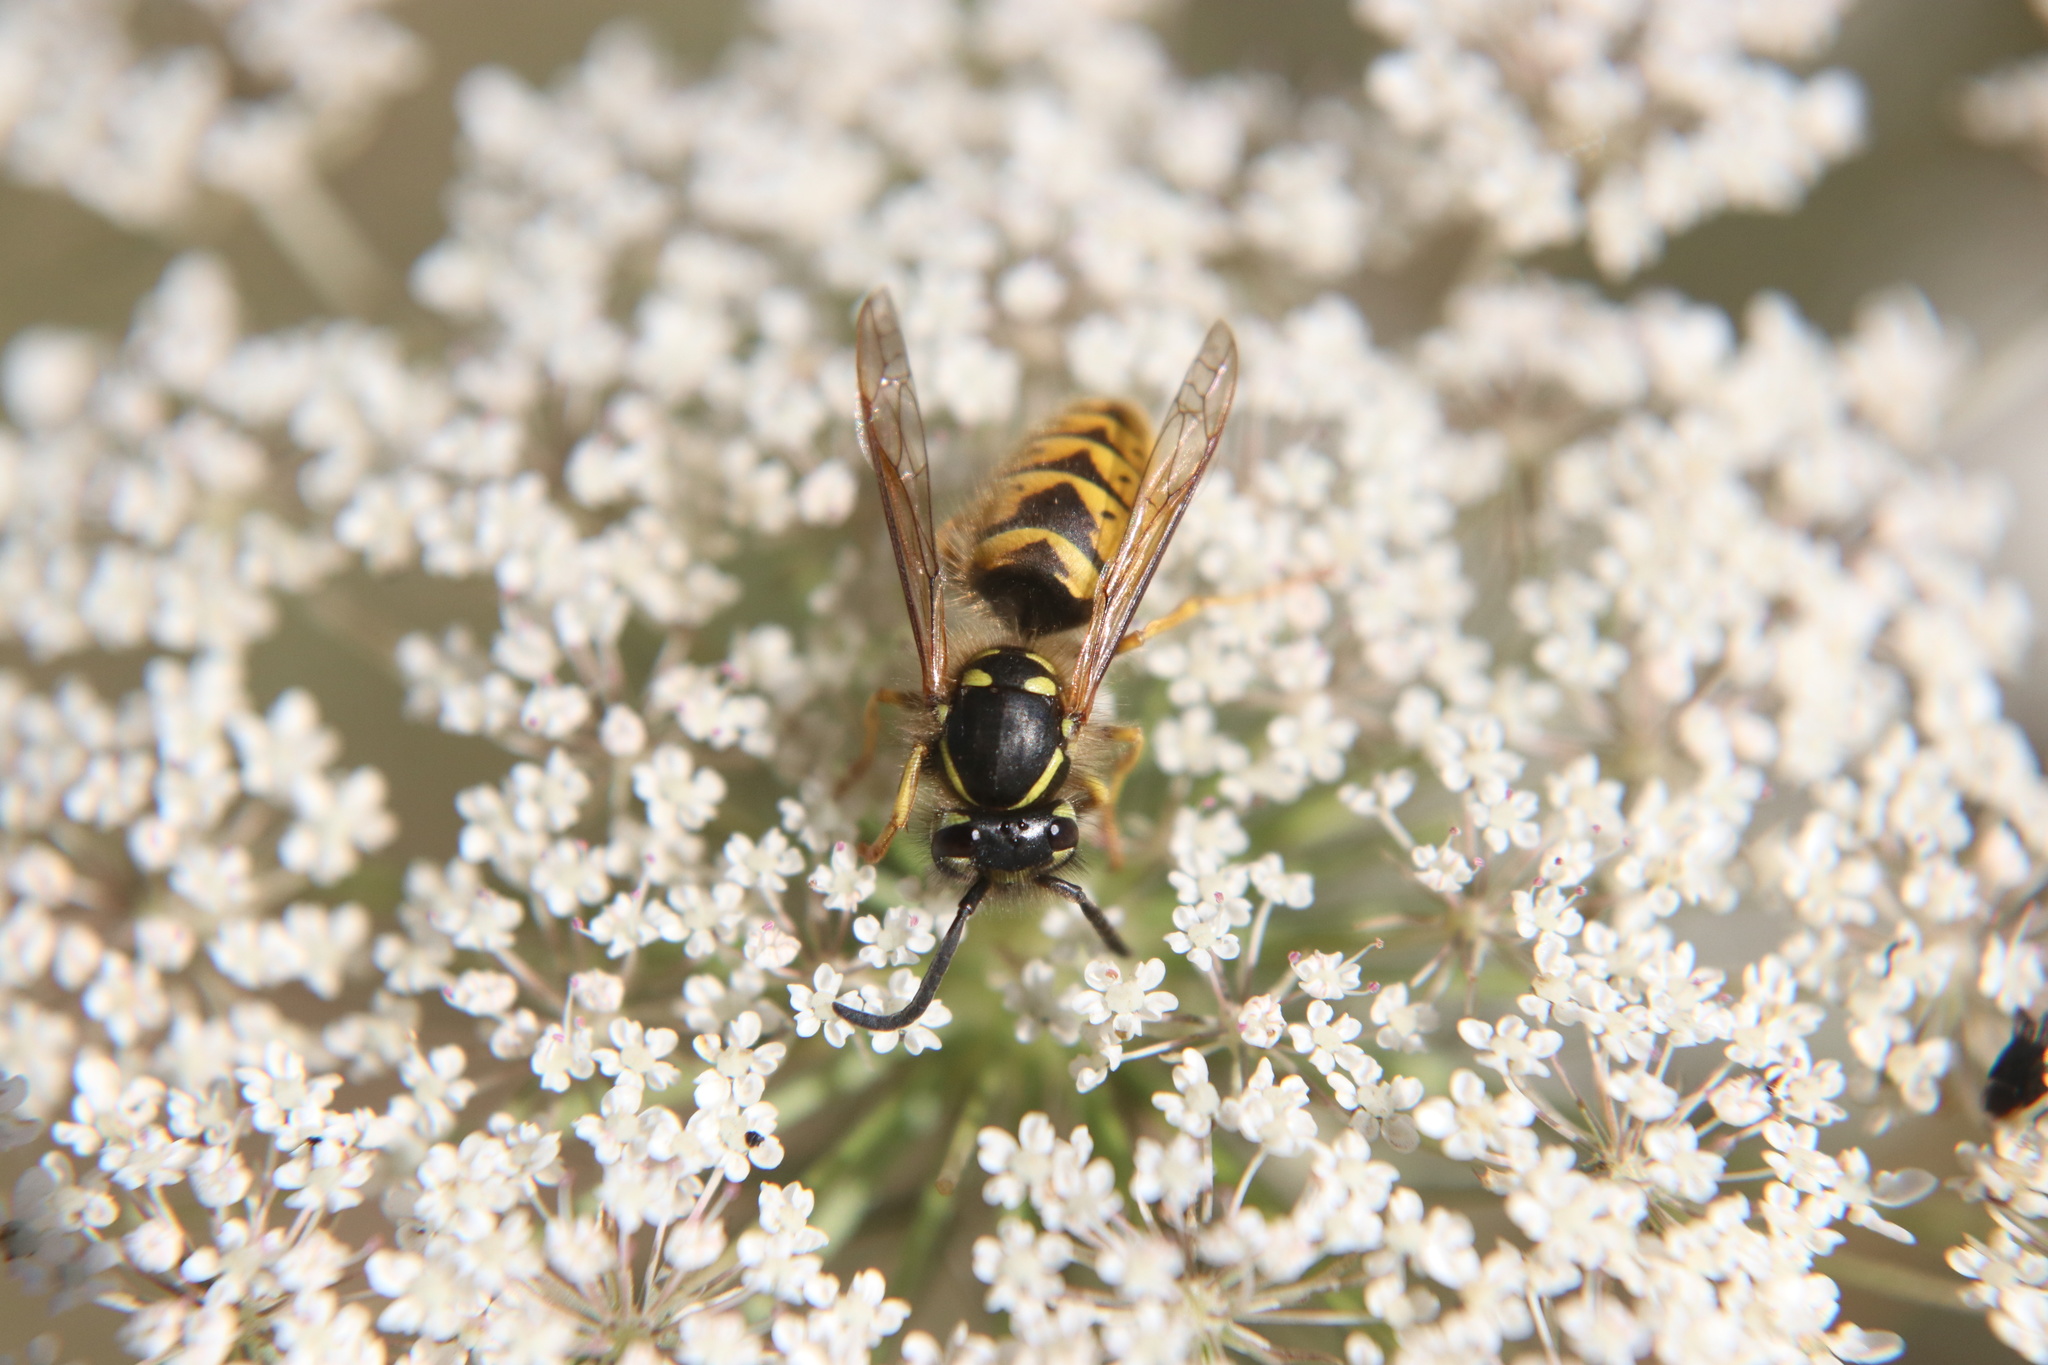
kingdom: Animalia
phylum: Arthropoda
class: Insecta
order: Hymenoptera
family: Vespidae
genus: Vespula
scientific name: Vespula vulgaris
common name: Common wasp
